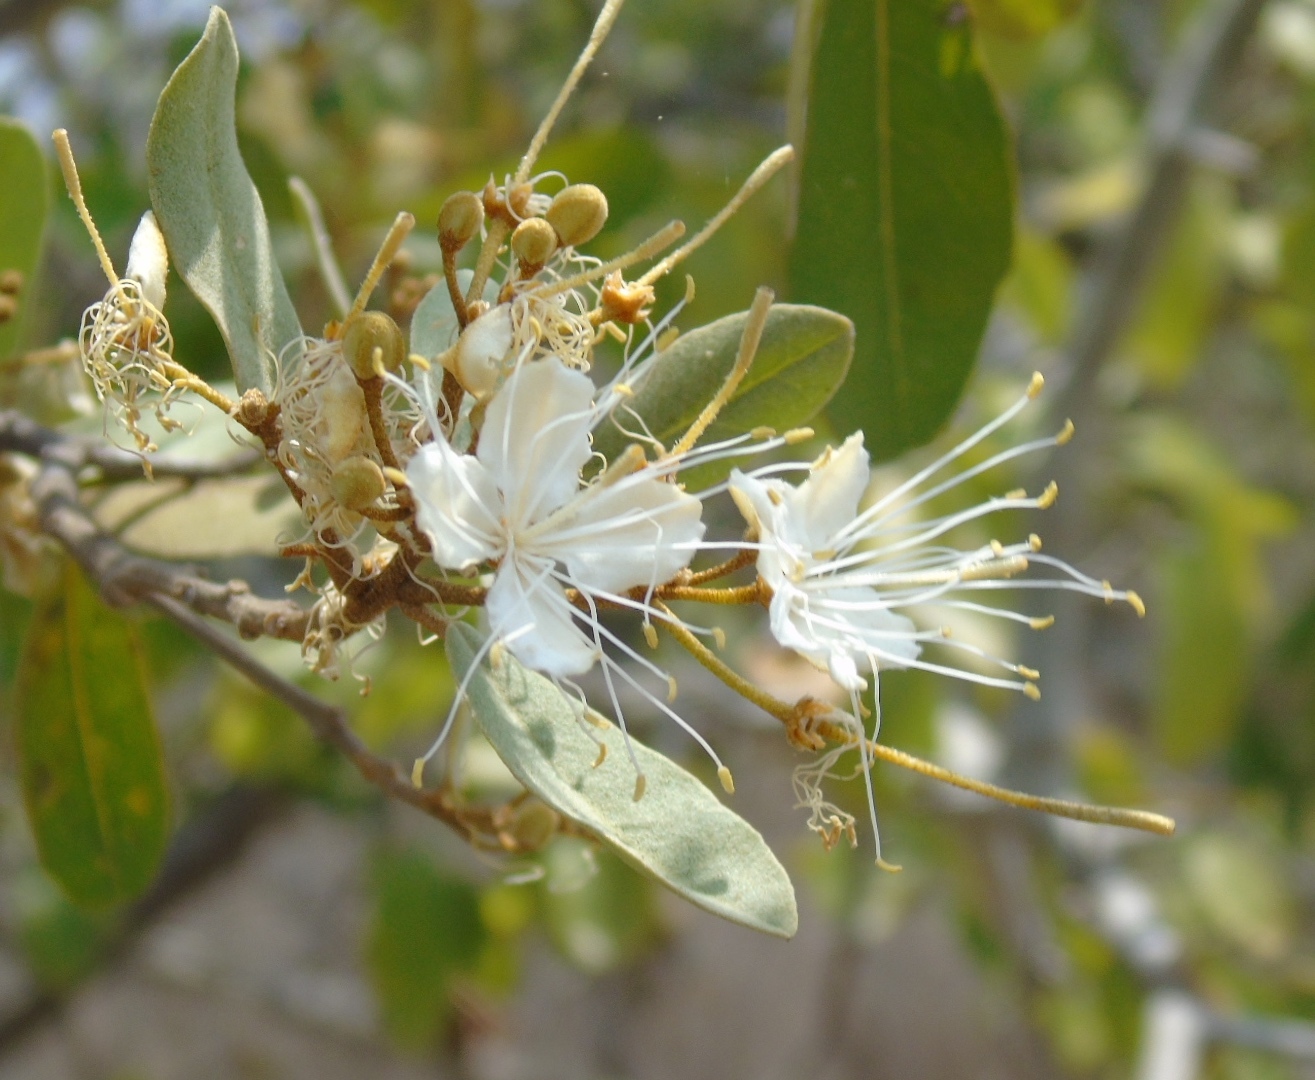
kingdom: Plantae
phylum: Tracheophyta
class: Magnoliopsida
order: Brassicales
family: Capparaceae
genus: Quadrella
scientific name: Quadrella indica
